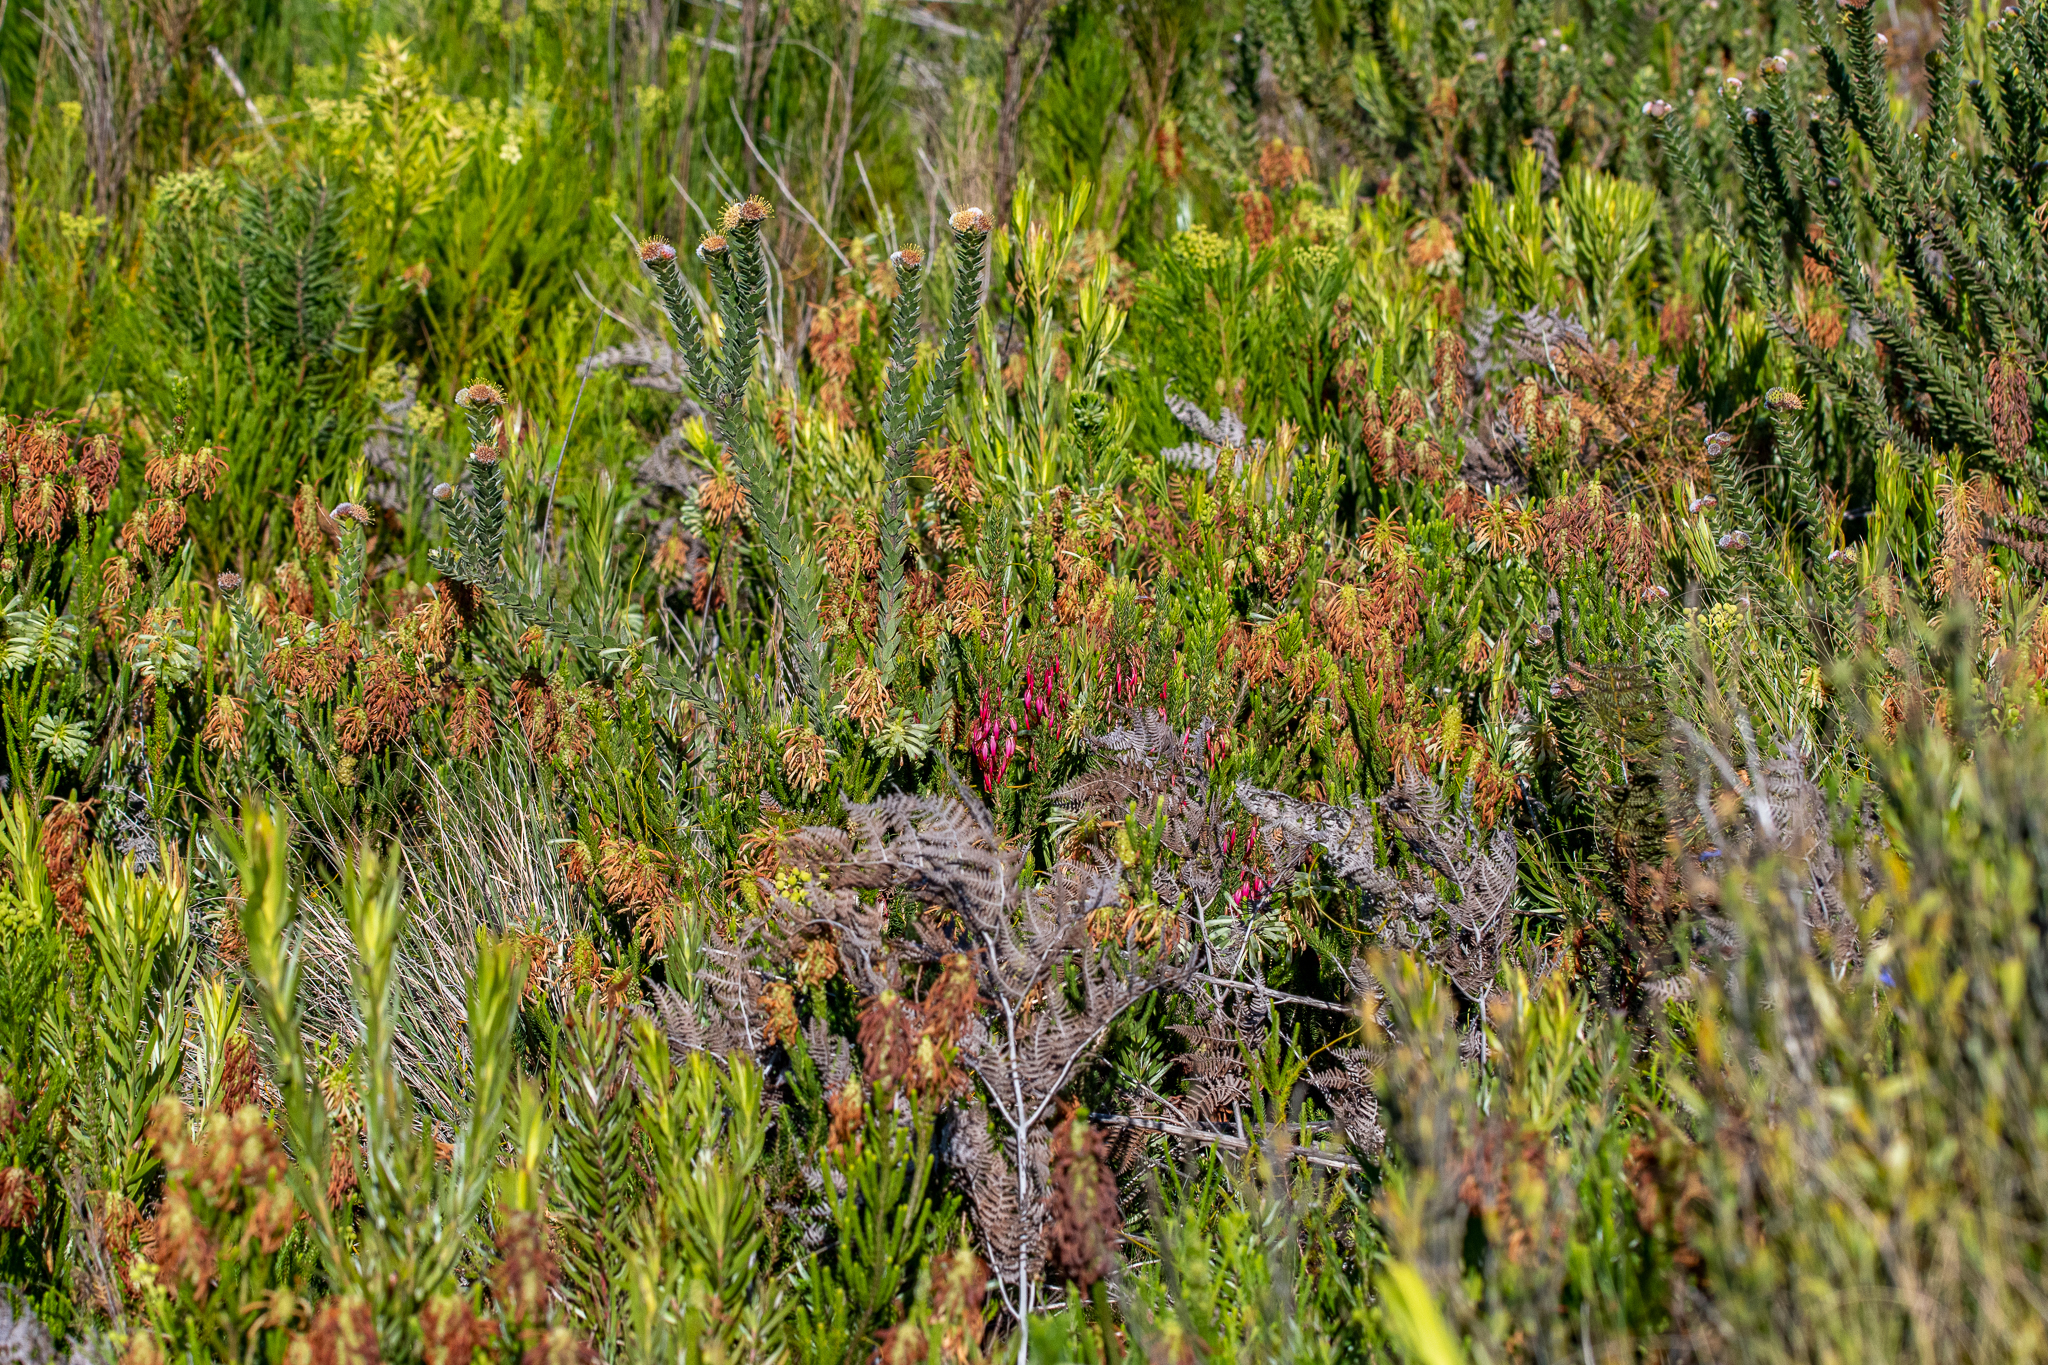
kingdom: Plantae
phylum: Tracheophyta
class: Magnoliopsida
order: Ericales
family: Ericaceae
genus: Erica
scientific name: Erica sessiliflora
